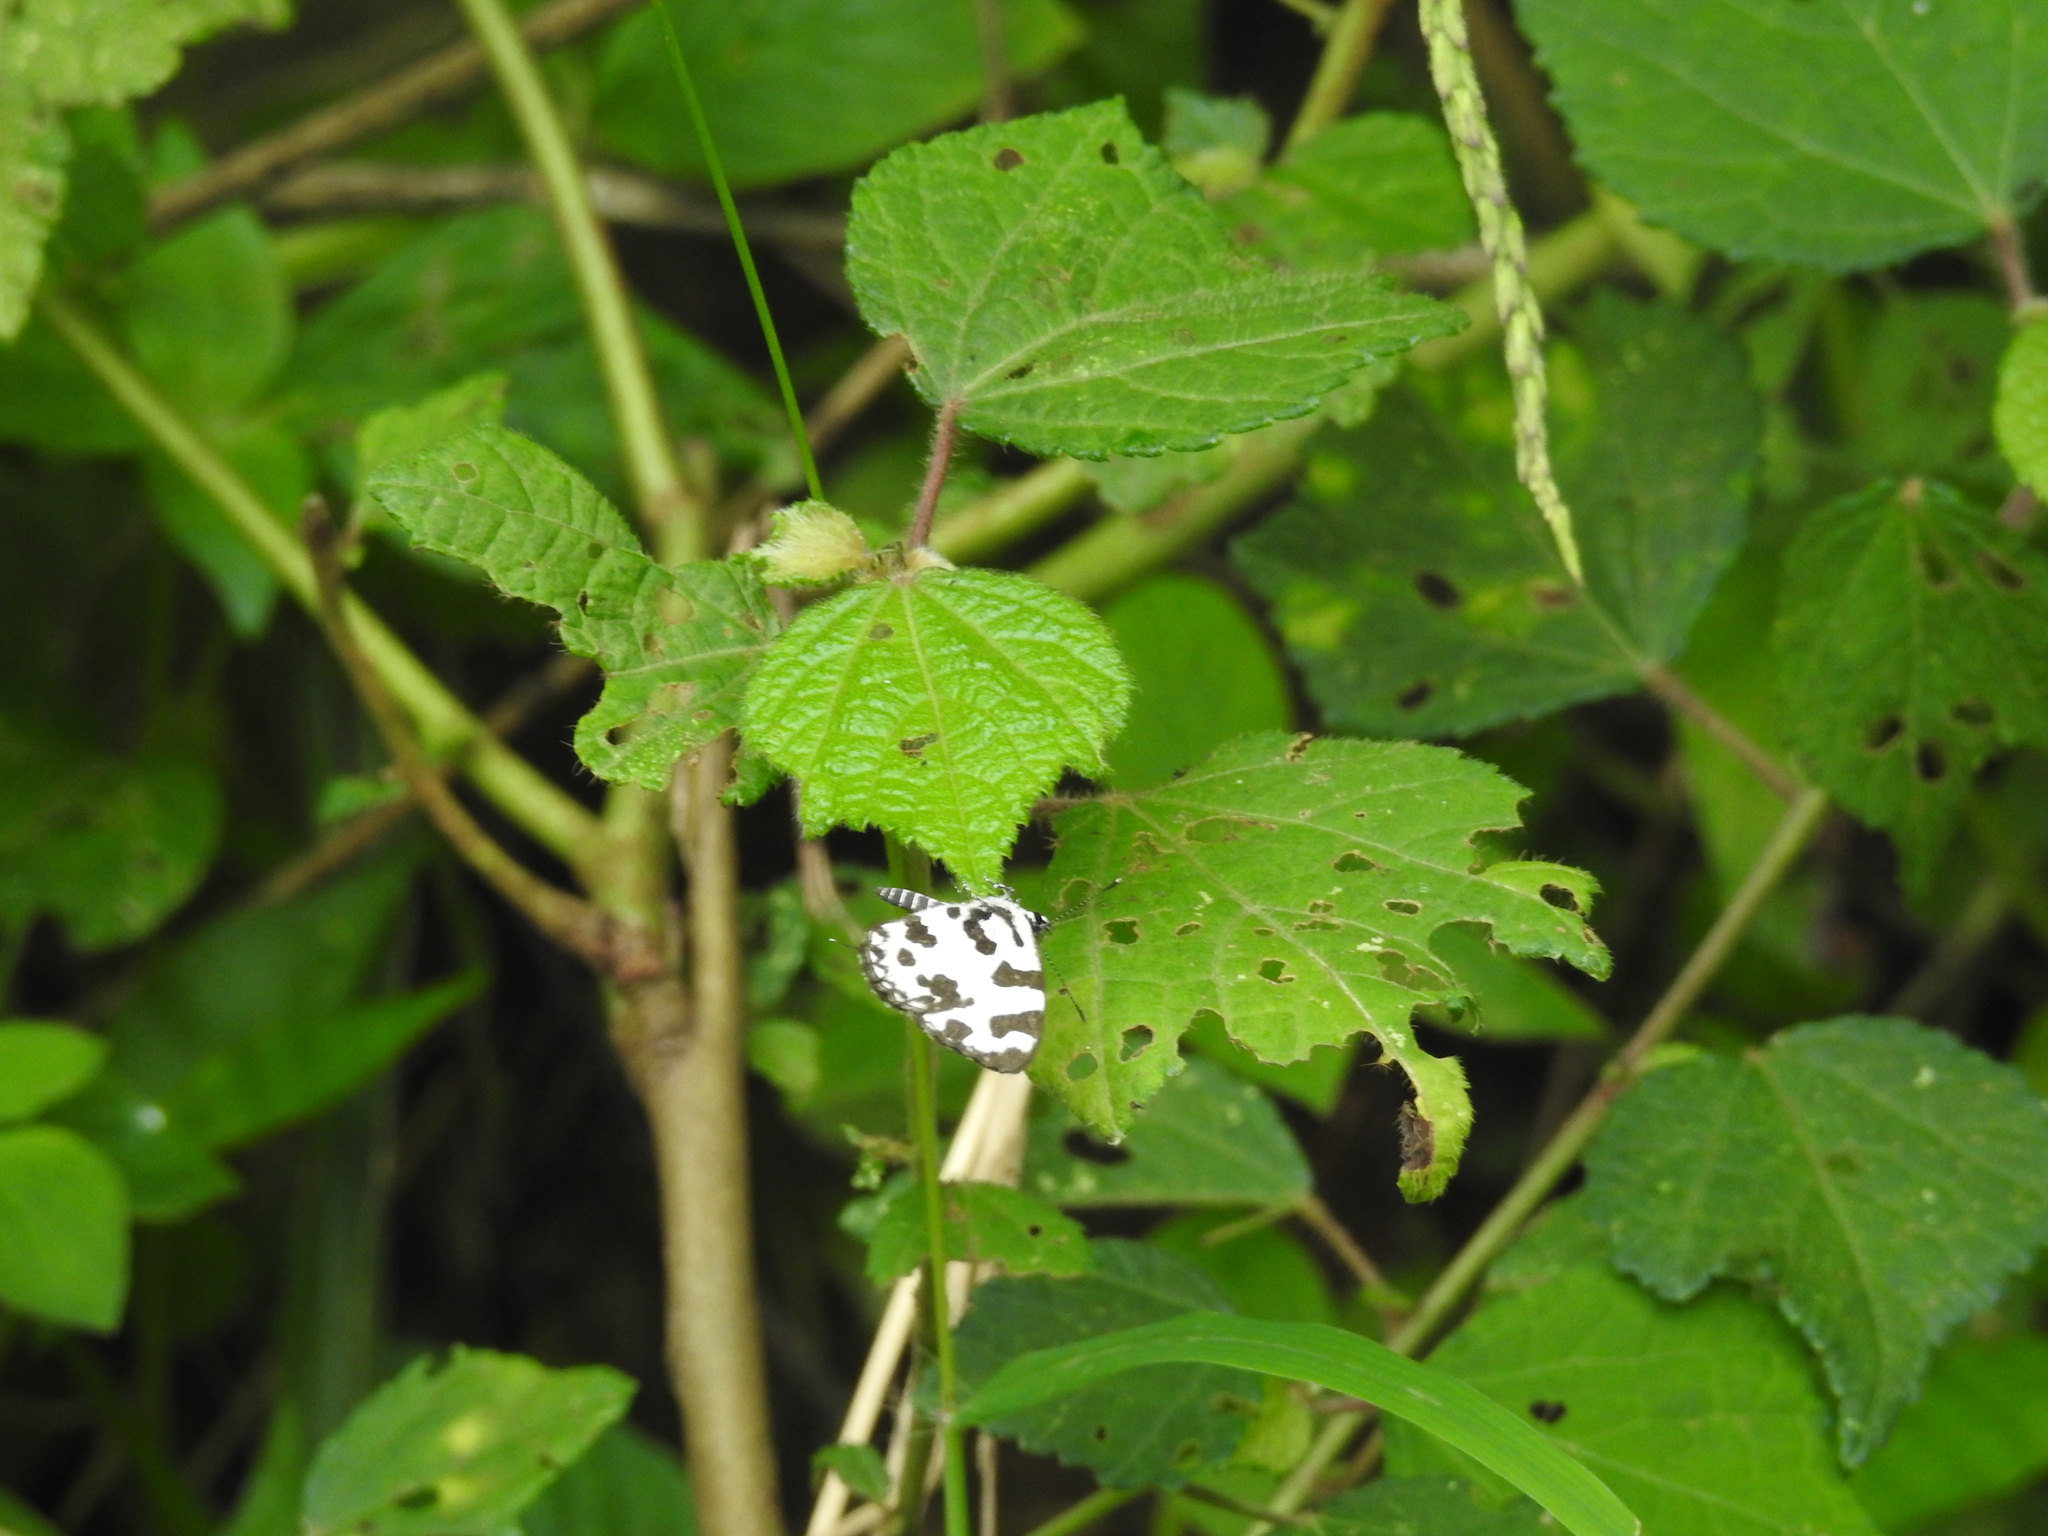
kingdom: Animalia
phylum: Arthropoda
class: Insecta
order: Lepidoptera
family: Lycaenidae
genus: Caleta
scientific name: Caleta decidia
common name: Angled pierrot
